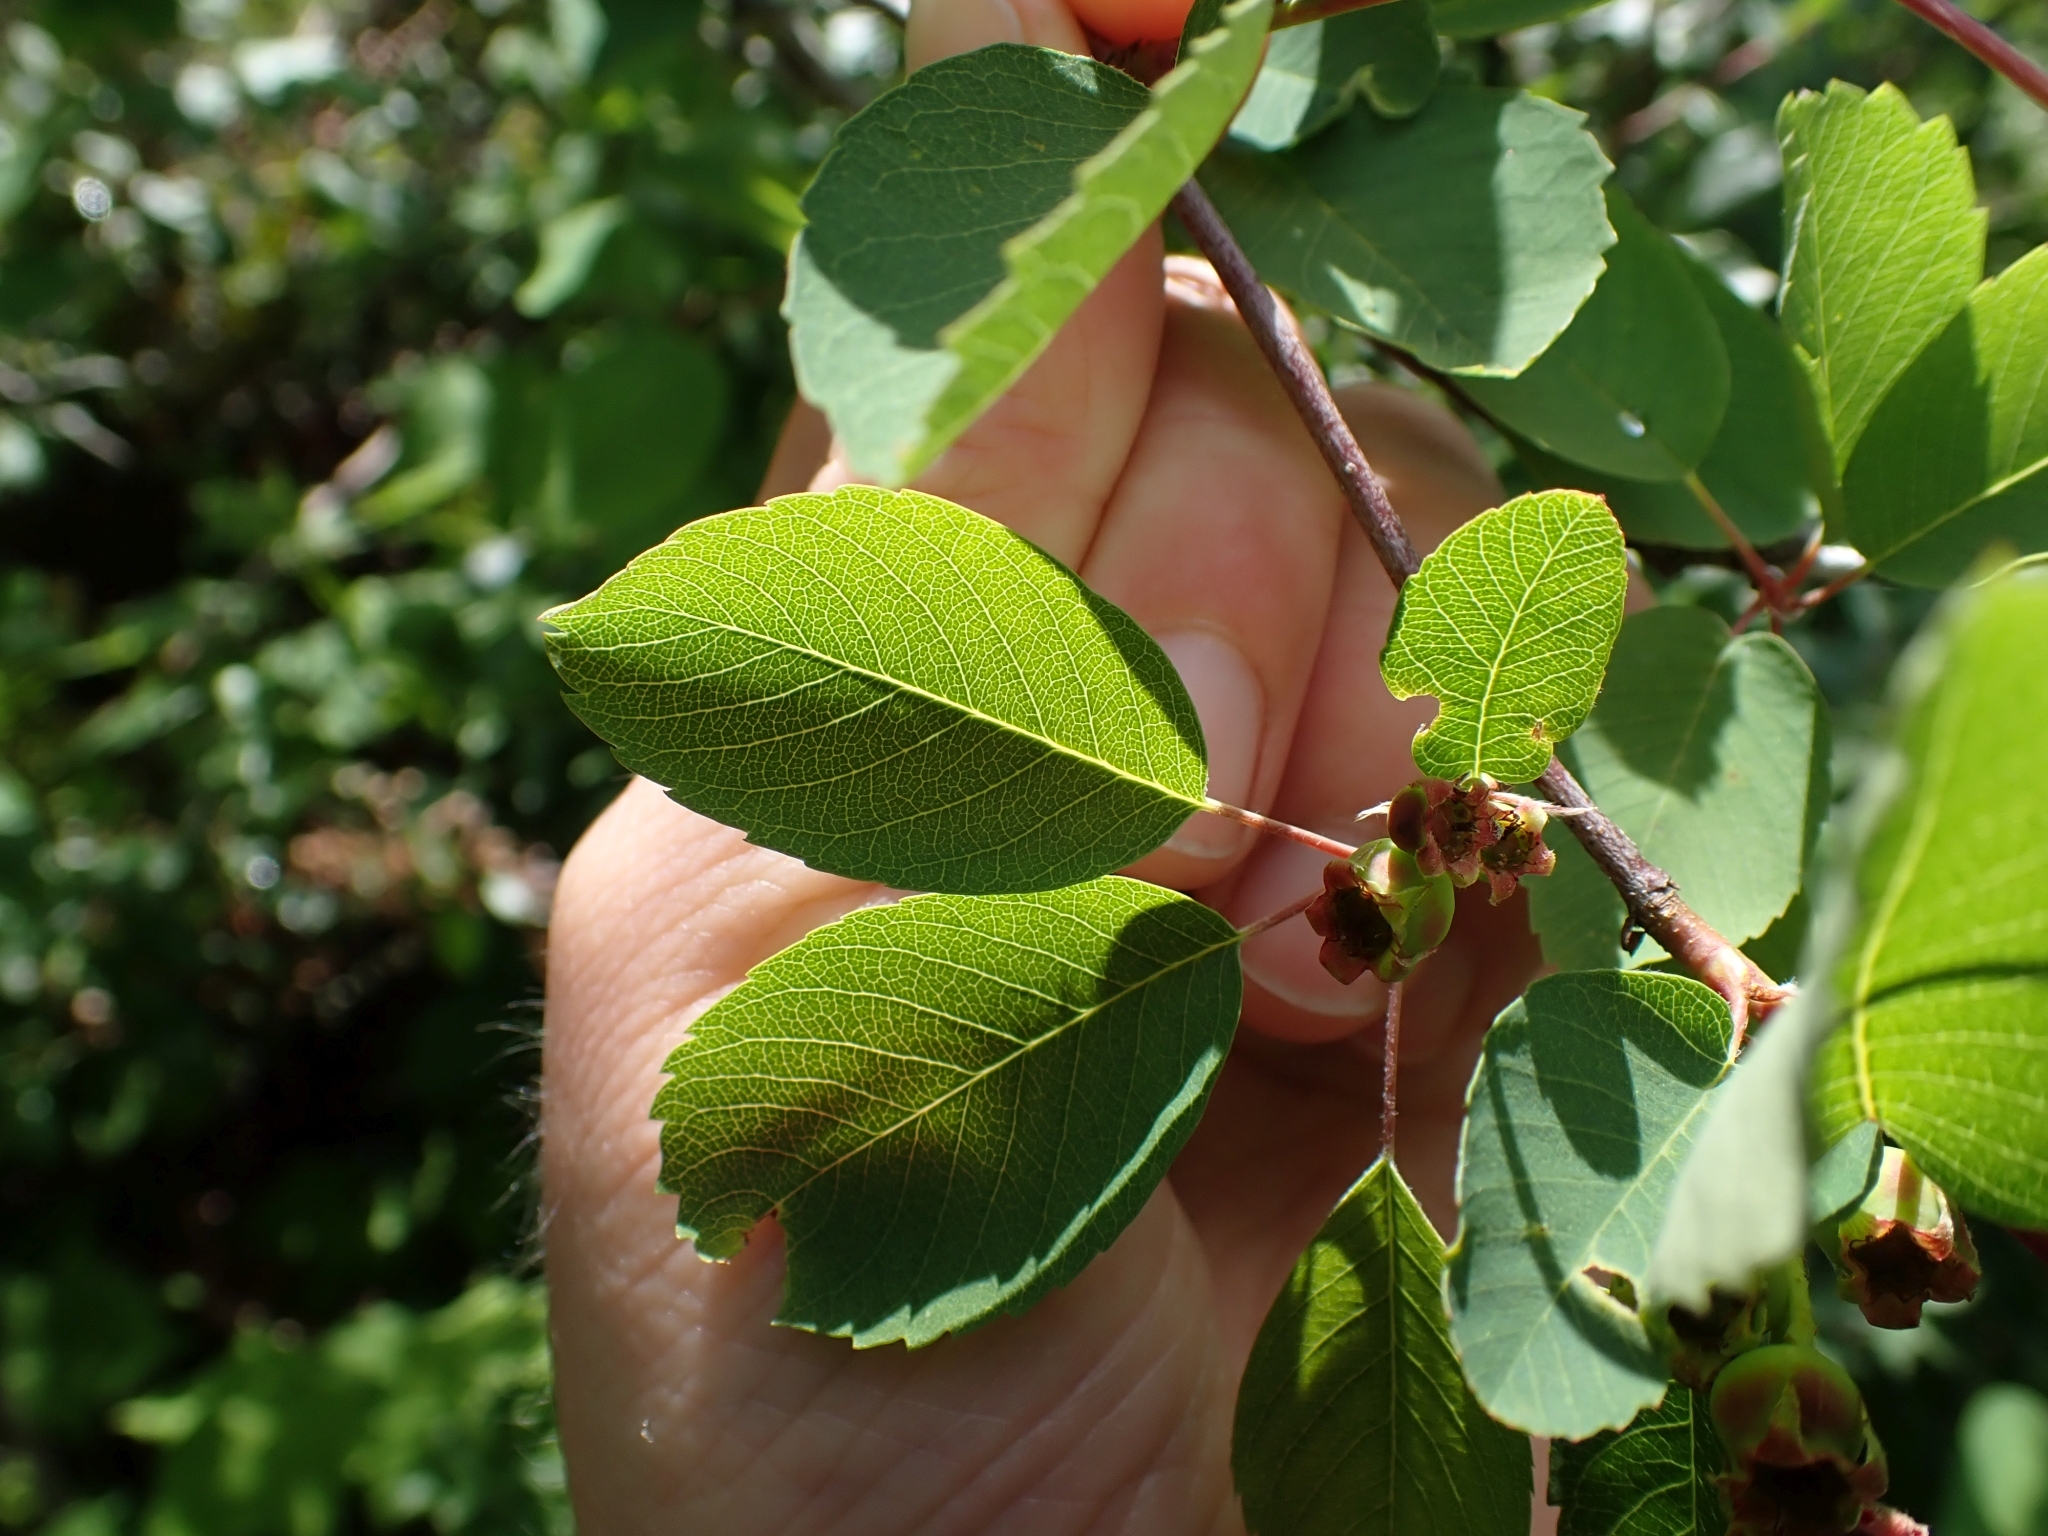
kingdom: Plantae
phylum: Tracheophyta
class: Magnoliopsida
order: Rosales
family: Rosaceae
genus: Amelanchier
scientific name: Amelanchier alnifolia
